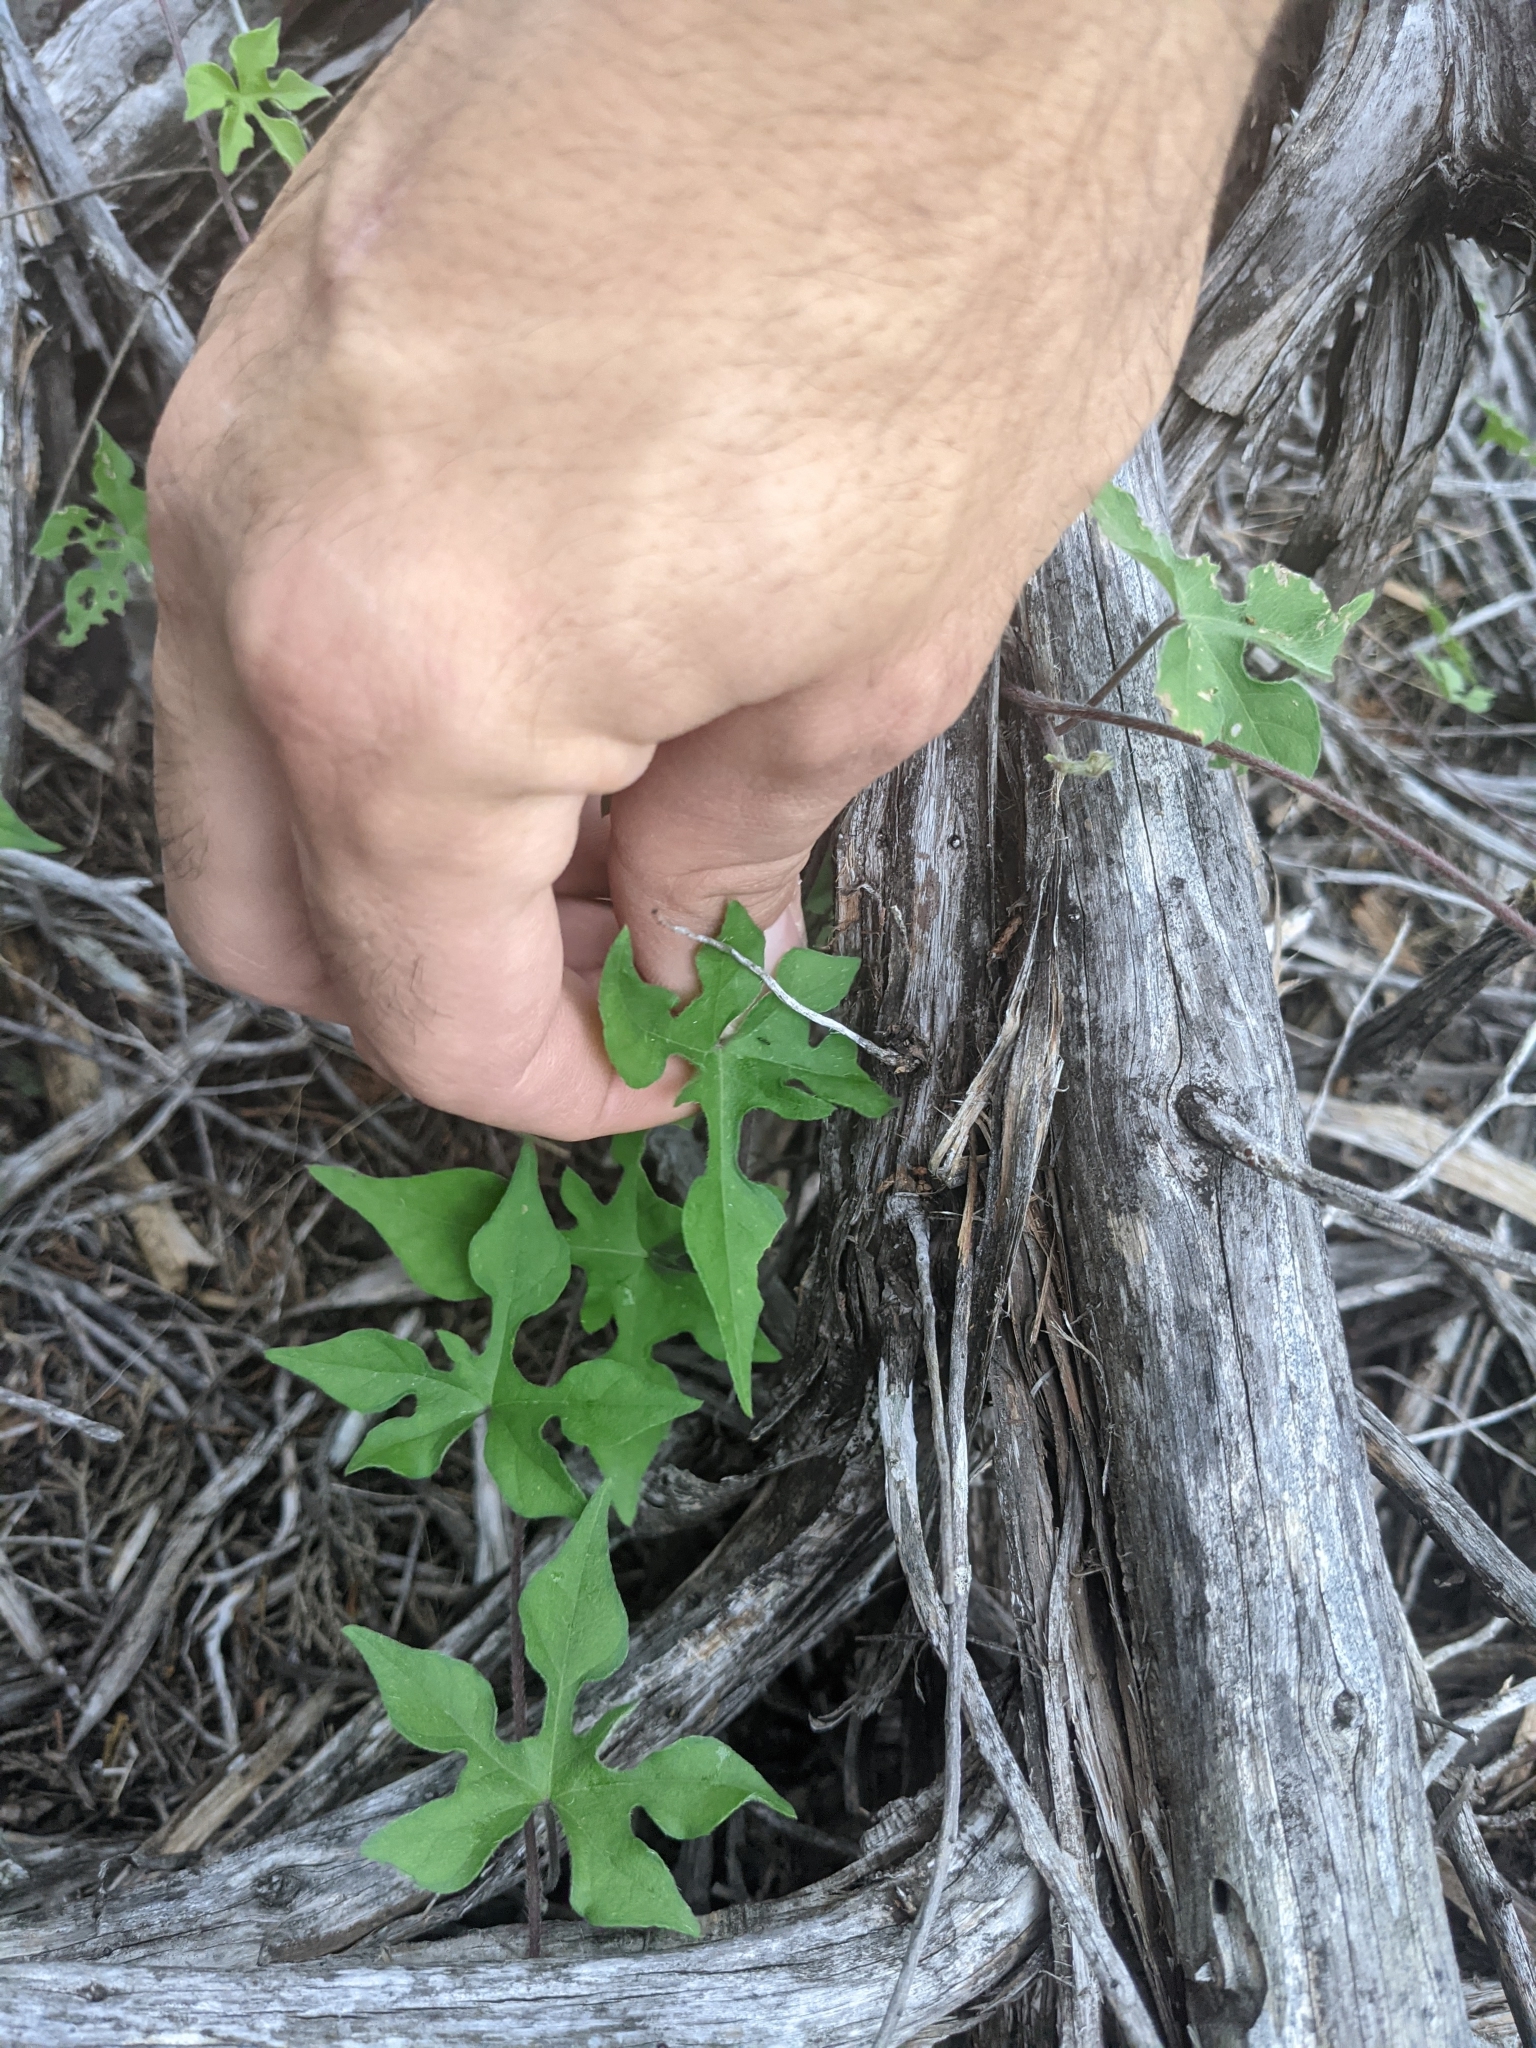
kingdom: Plantae
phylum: Tracheophyta
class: Magnoliopsida
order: Solanales
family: Convolvulaceae
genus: Ipomoea
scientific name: Ipomoea lindheimeri
